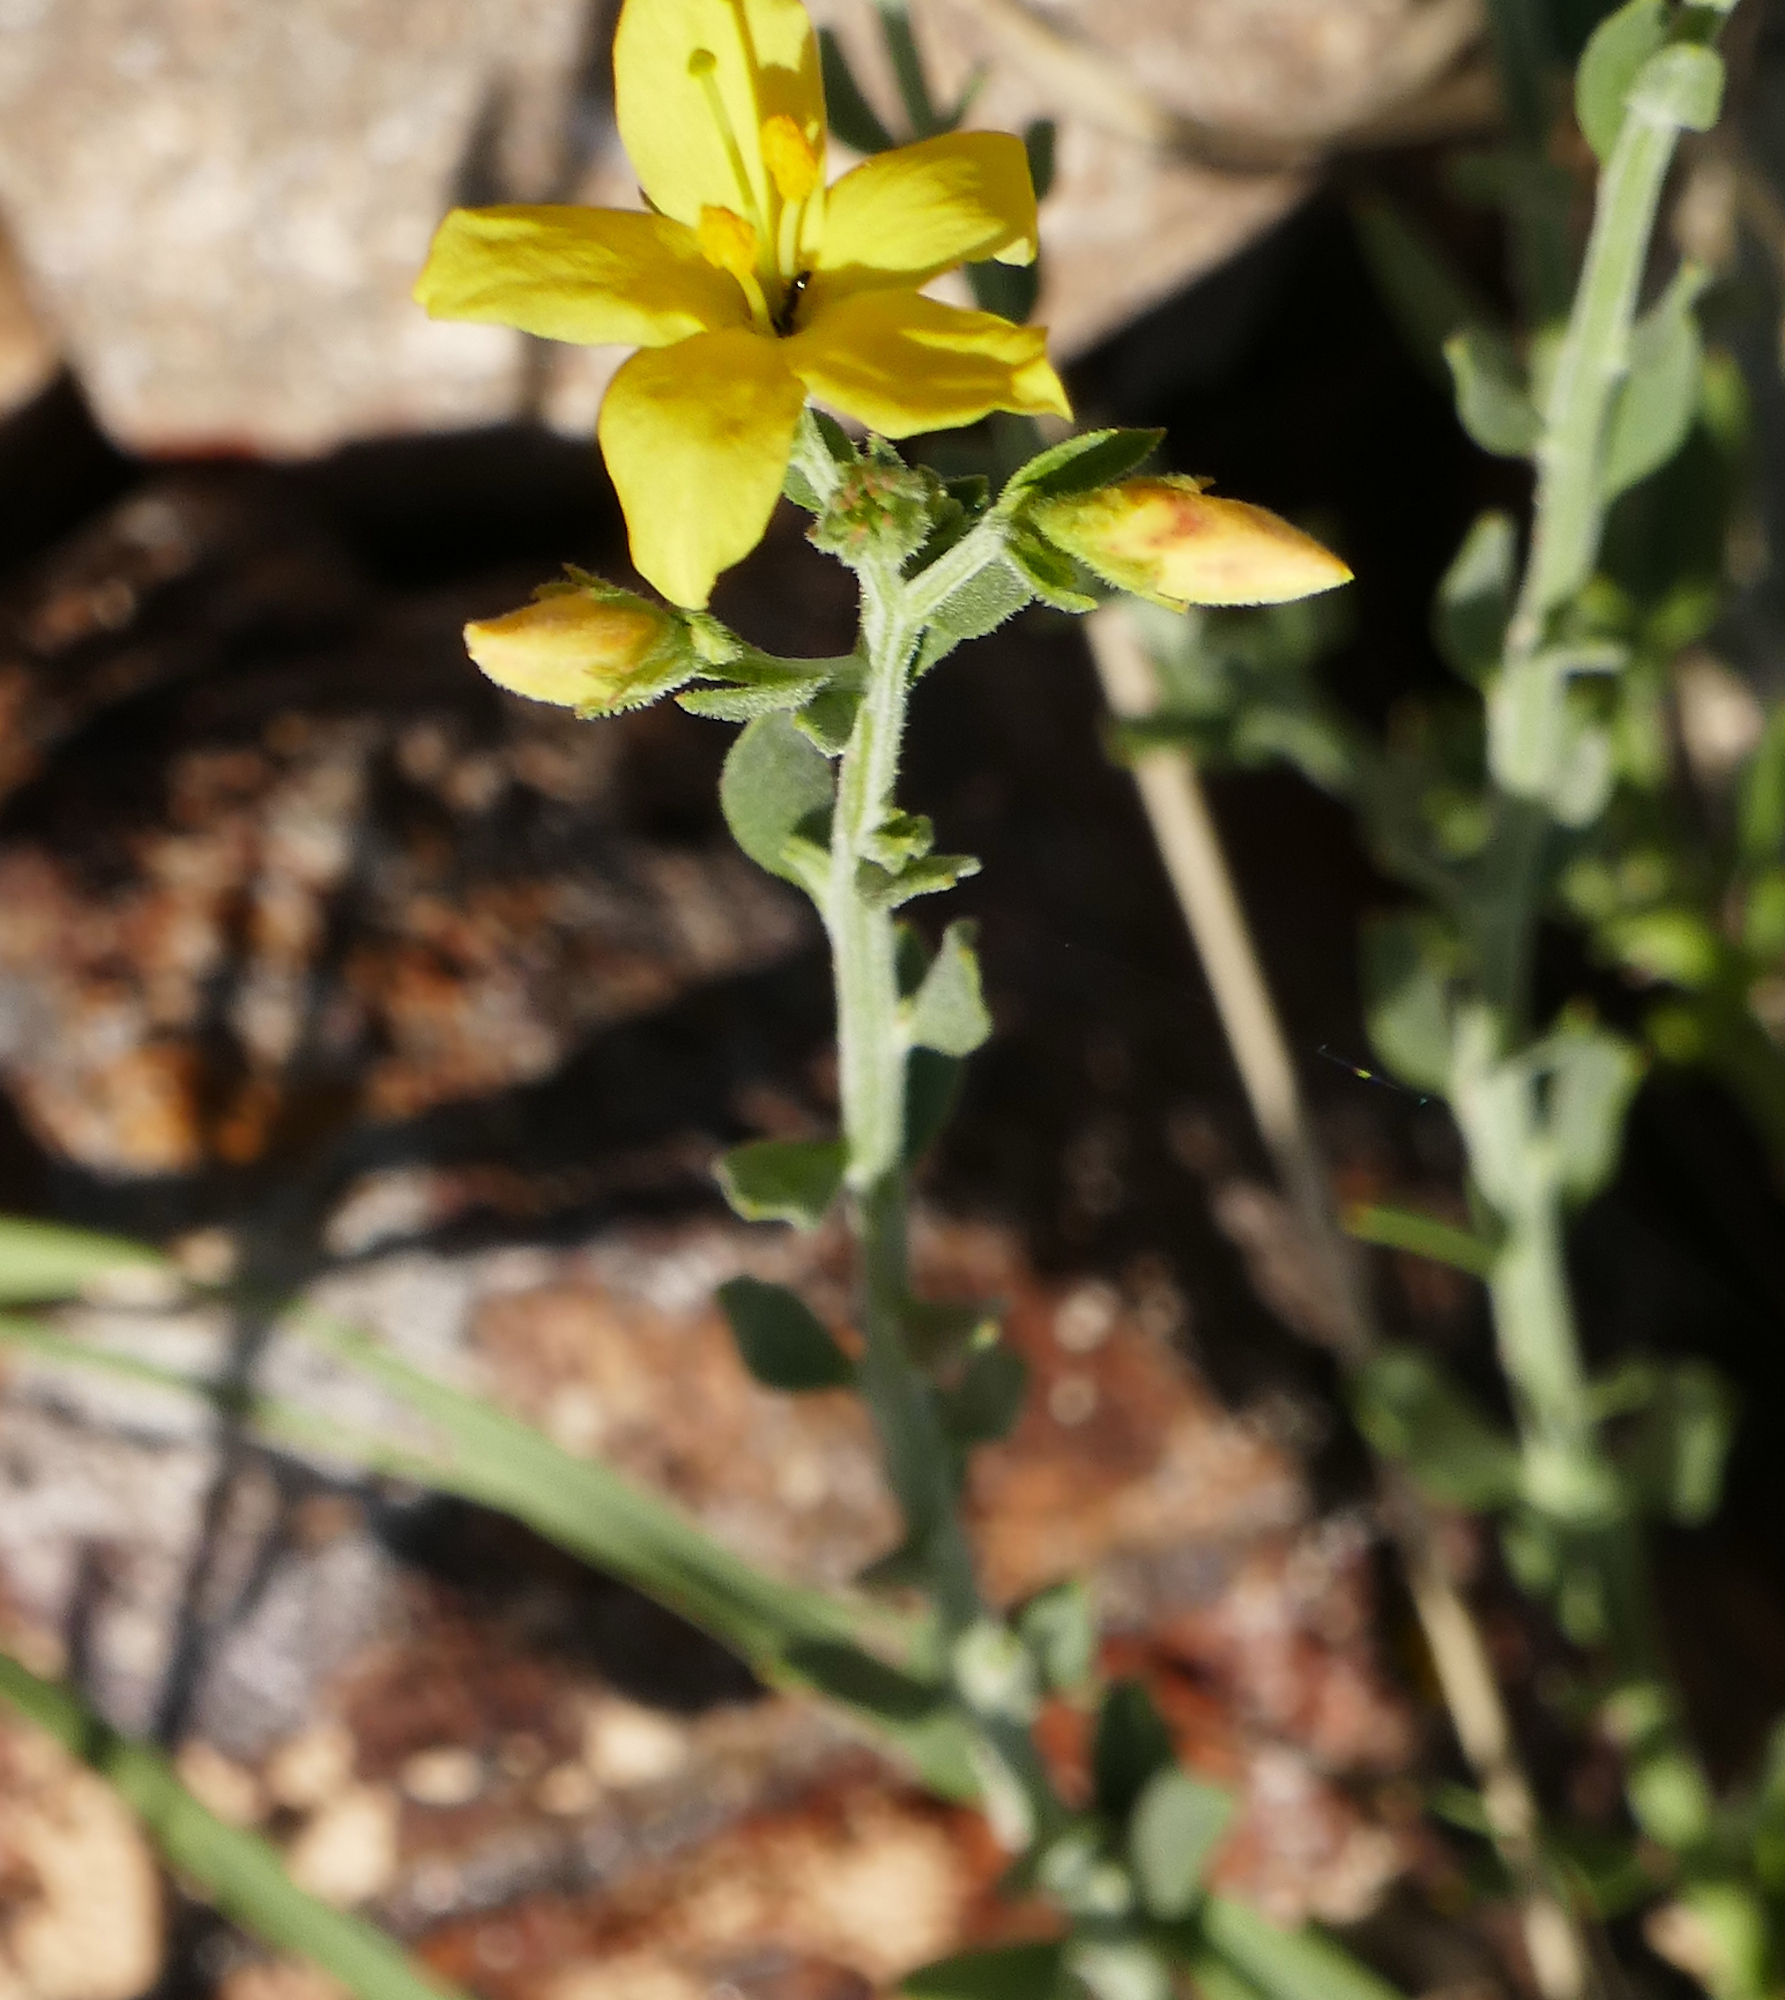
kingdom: Plantae
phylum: Tracheophyta
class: Magnoliopsida
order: Lamiales
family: Oleaceae
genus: Menodora
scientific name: Menodora scabra
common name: Rough menodora
